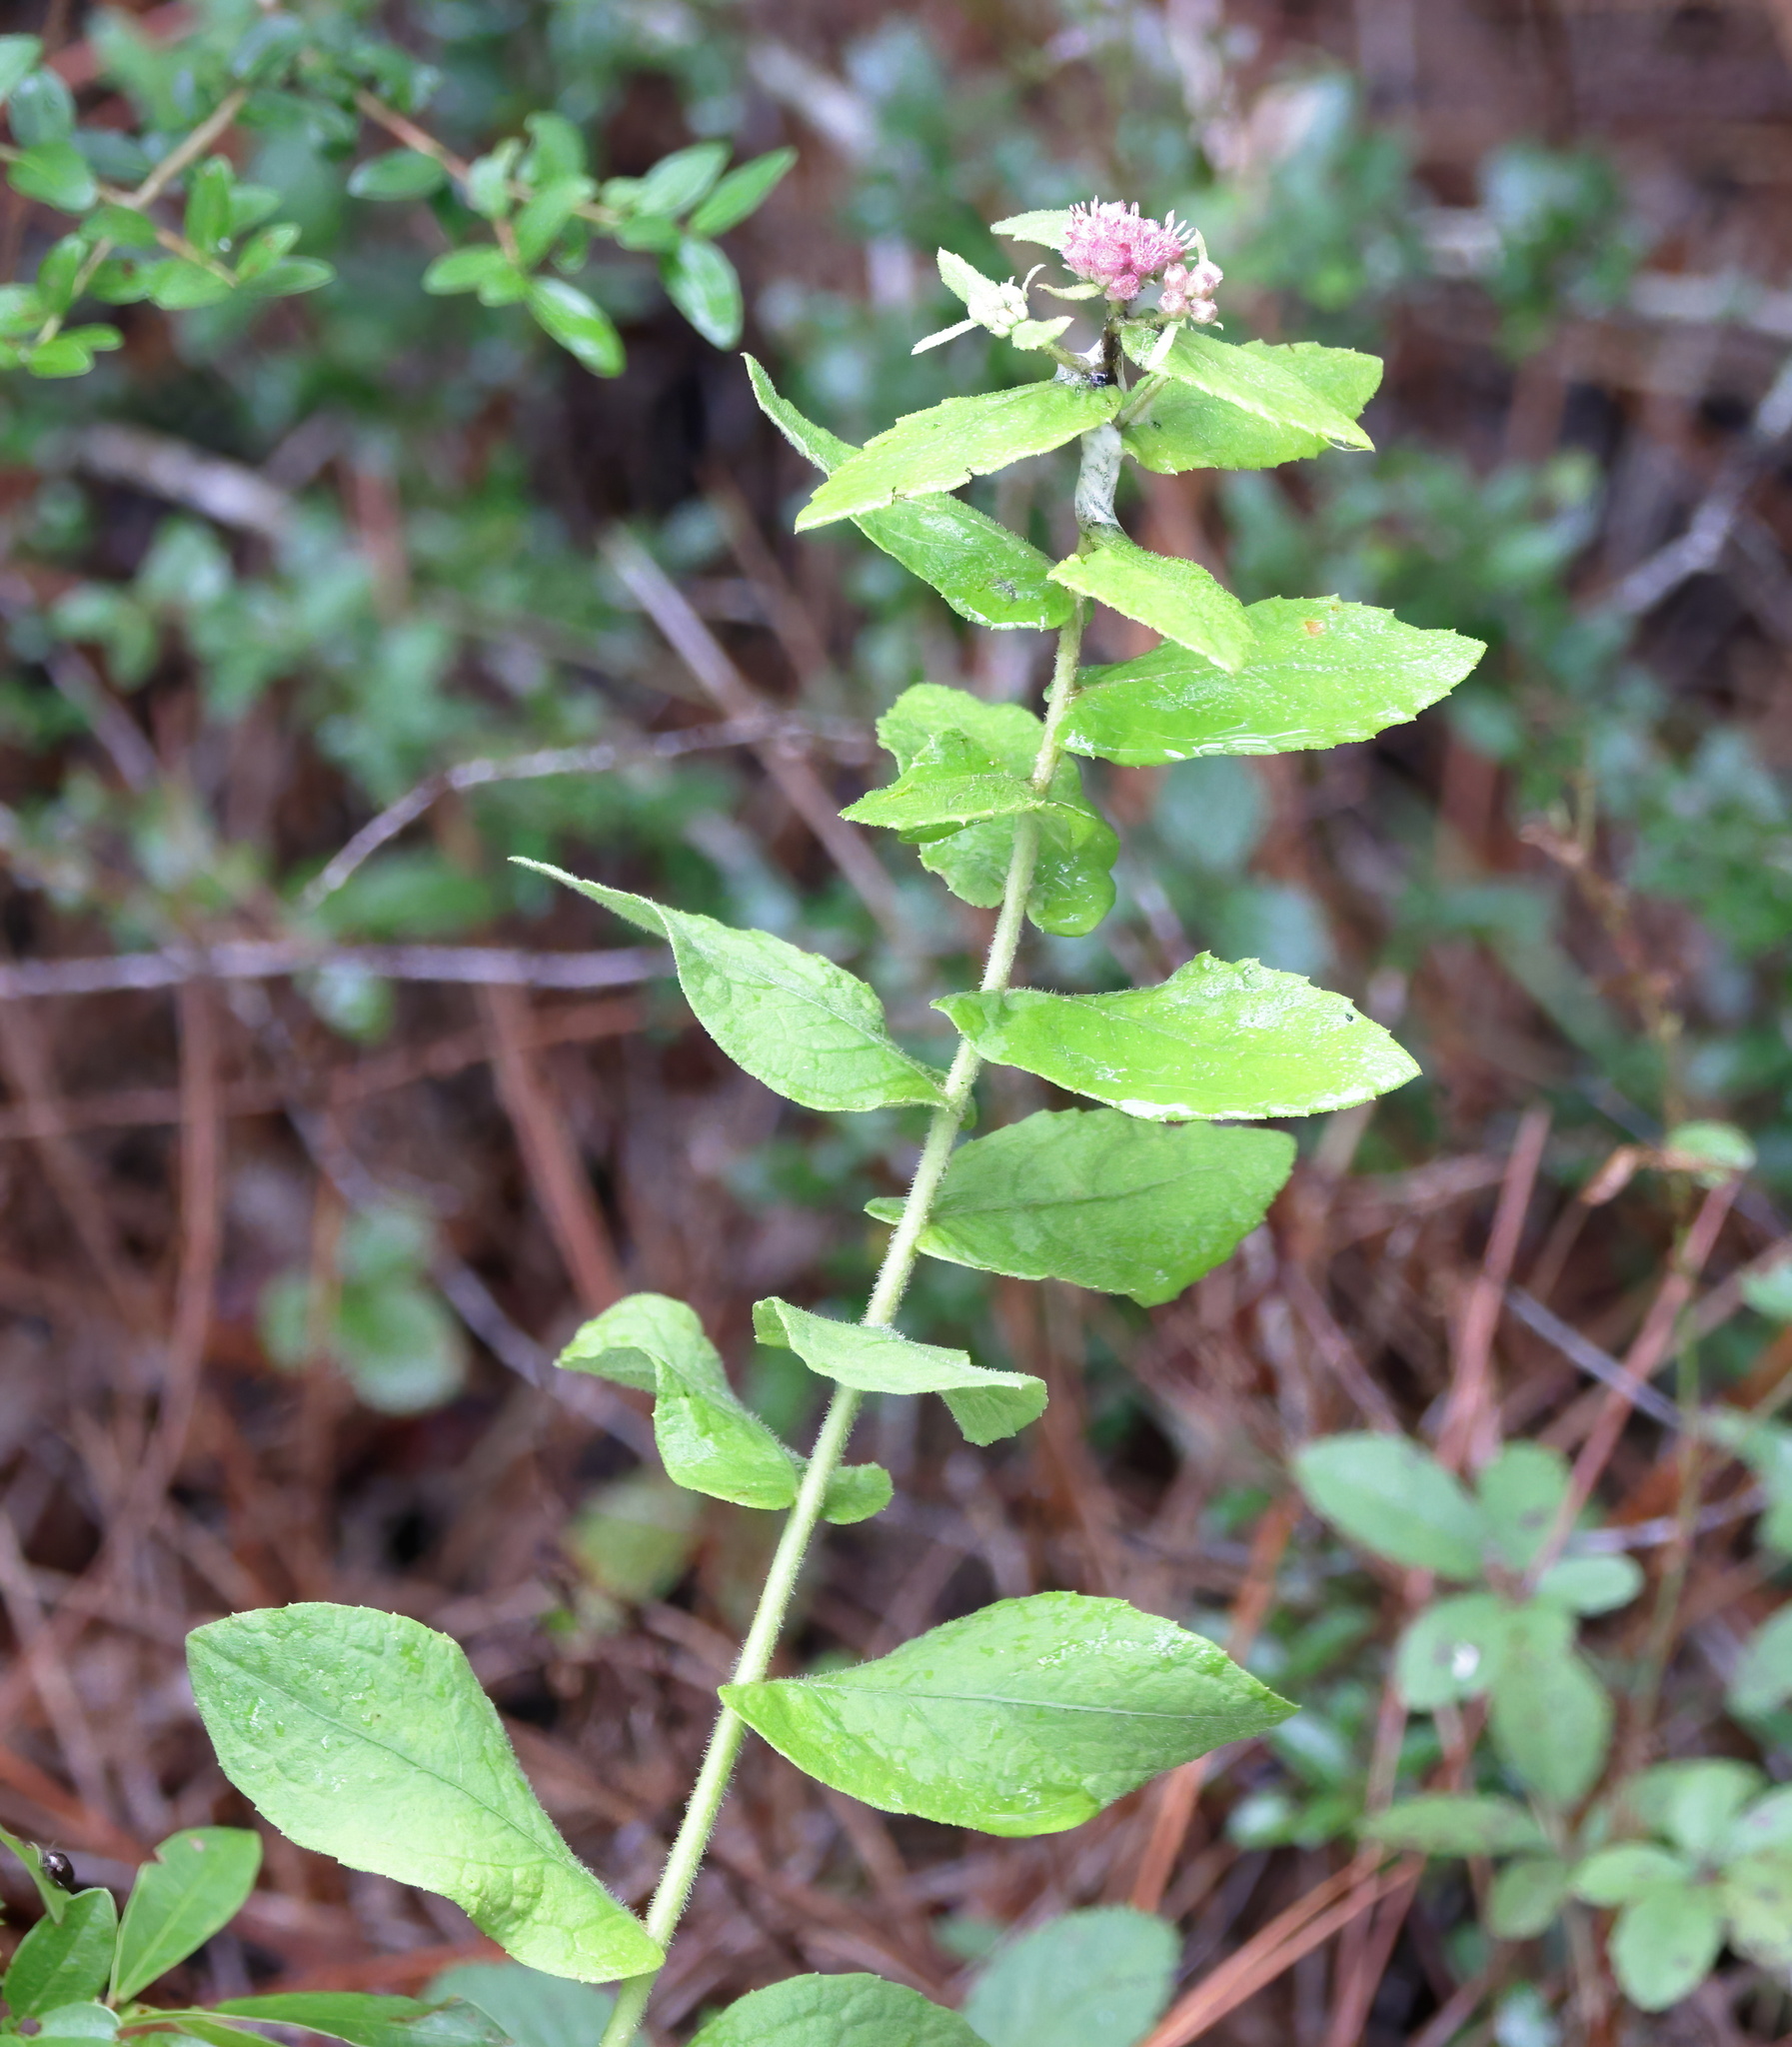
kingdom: Plantae
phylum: Tracheophyta
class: Magnoliopsida
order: Asterales
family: Asteraceae
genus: Pluchea
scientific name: Pluchea baccharis
